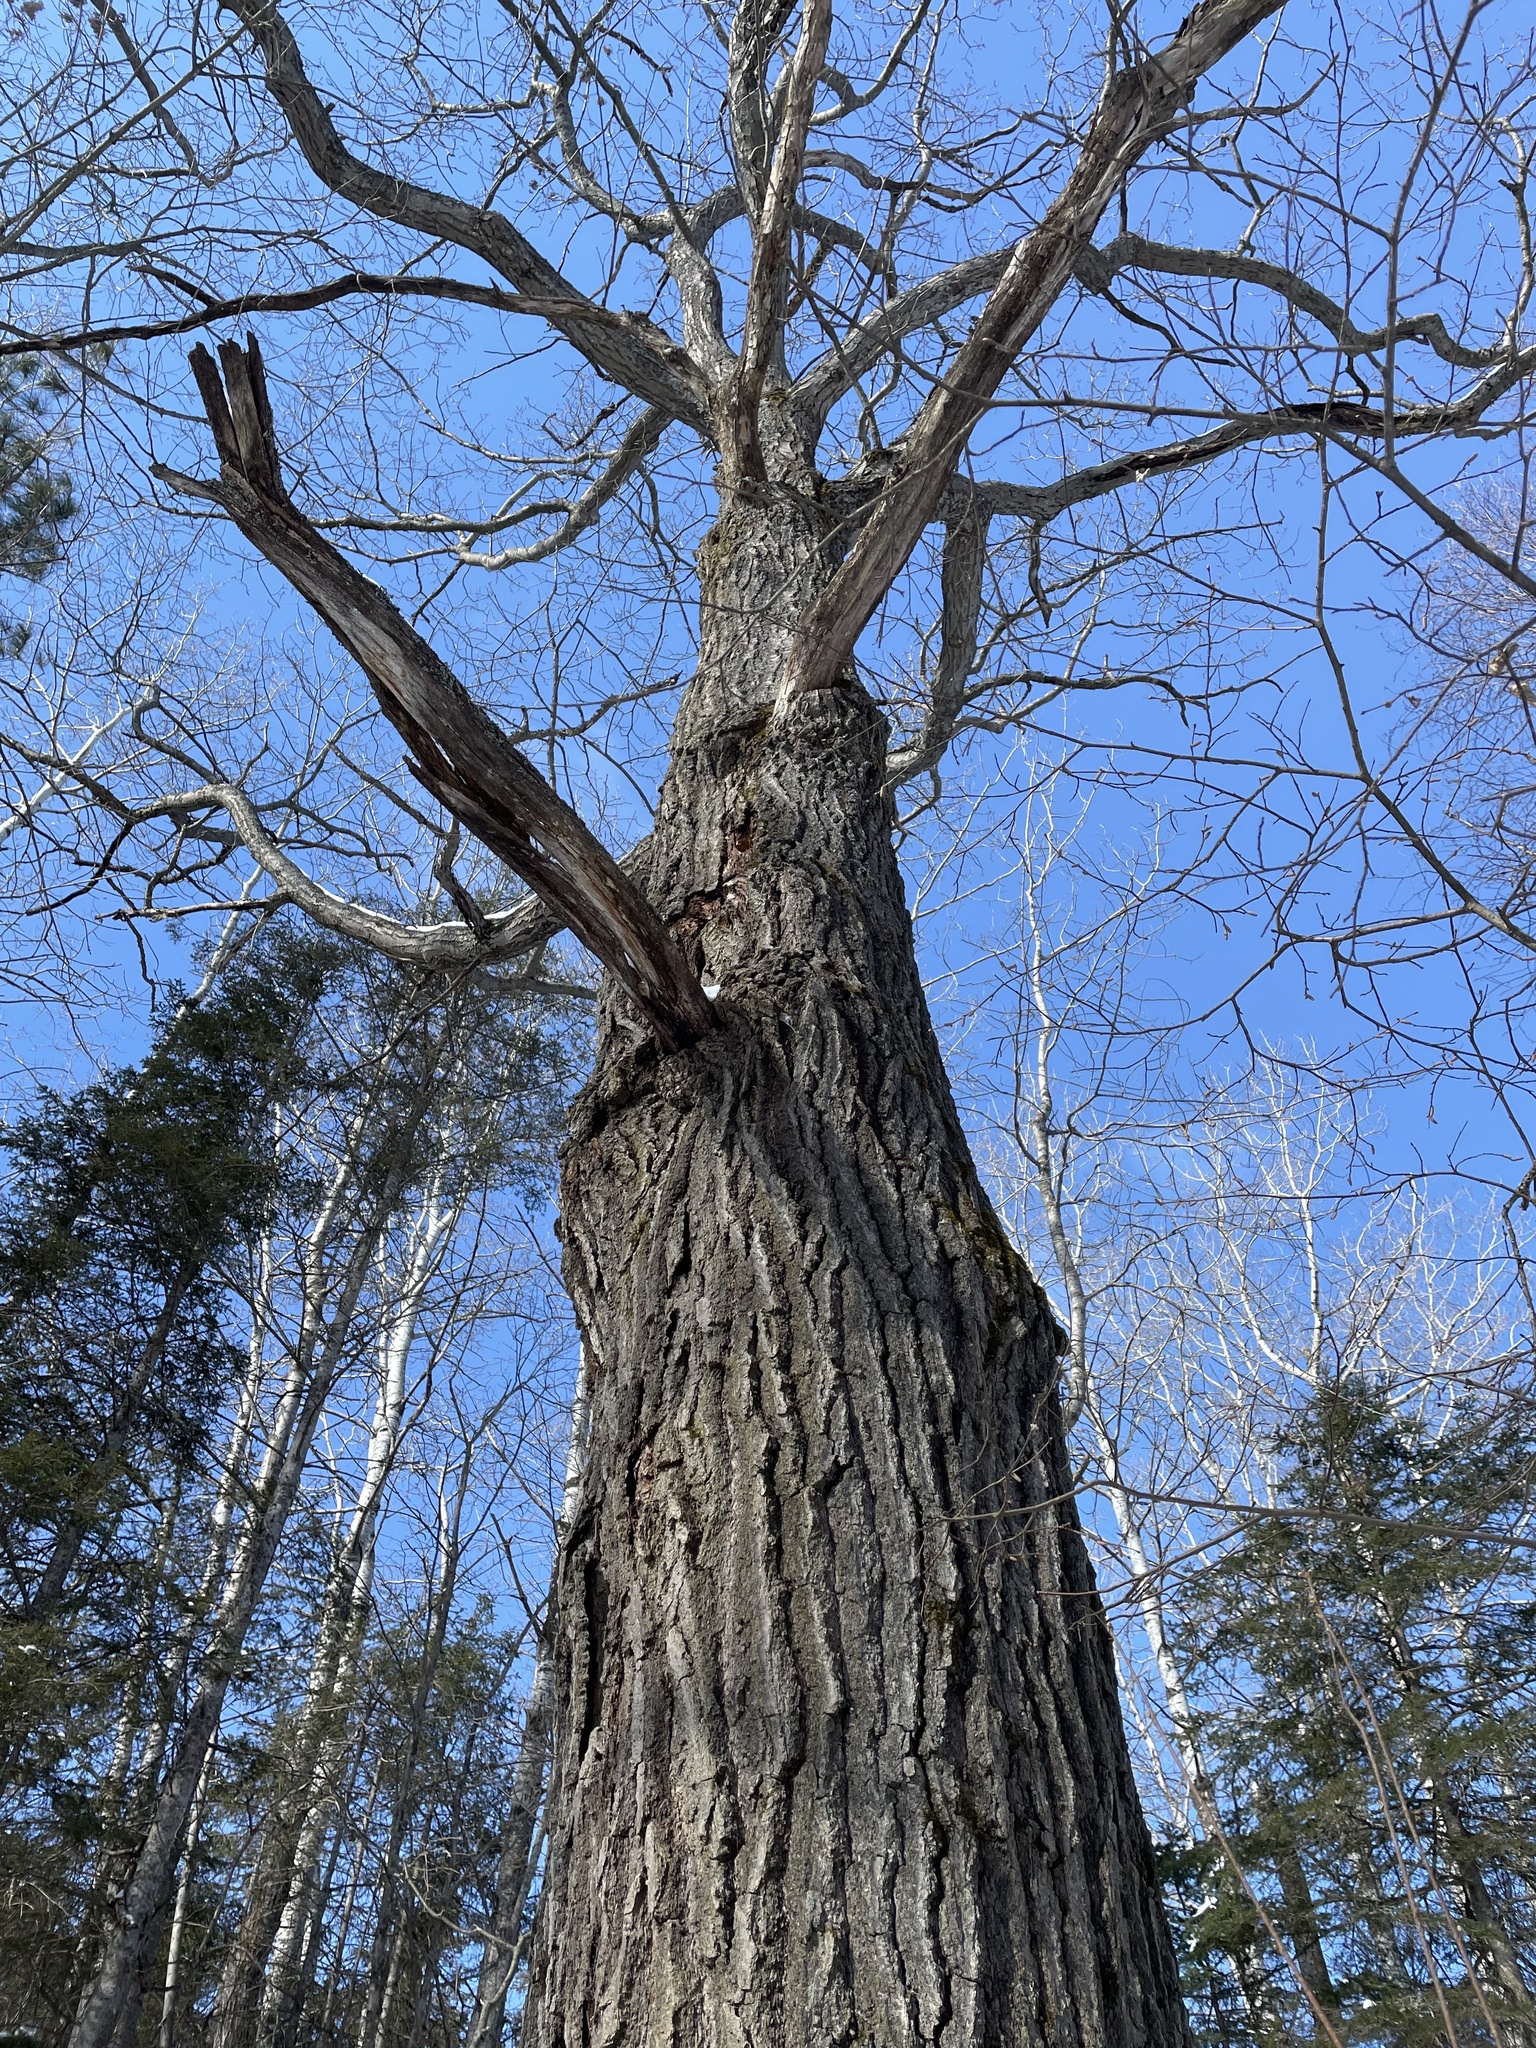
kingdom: Plantae
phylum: Tracheophyta
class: Magnoliopsida
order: Fagales
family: Fagaceae
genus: Quercus
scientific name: Quercus rubra
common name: Red oak
